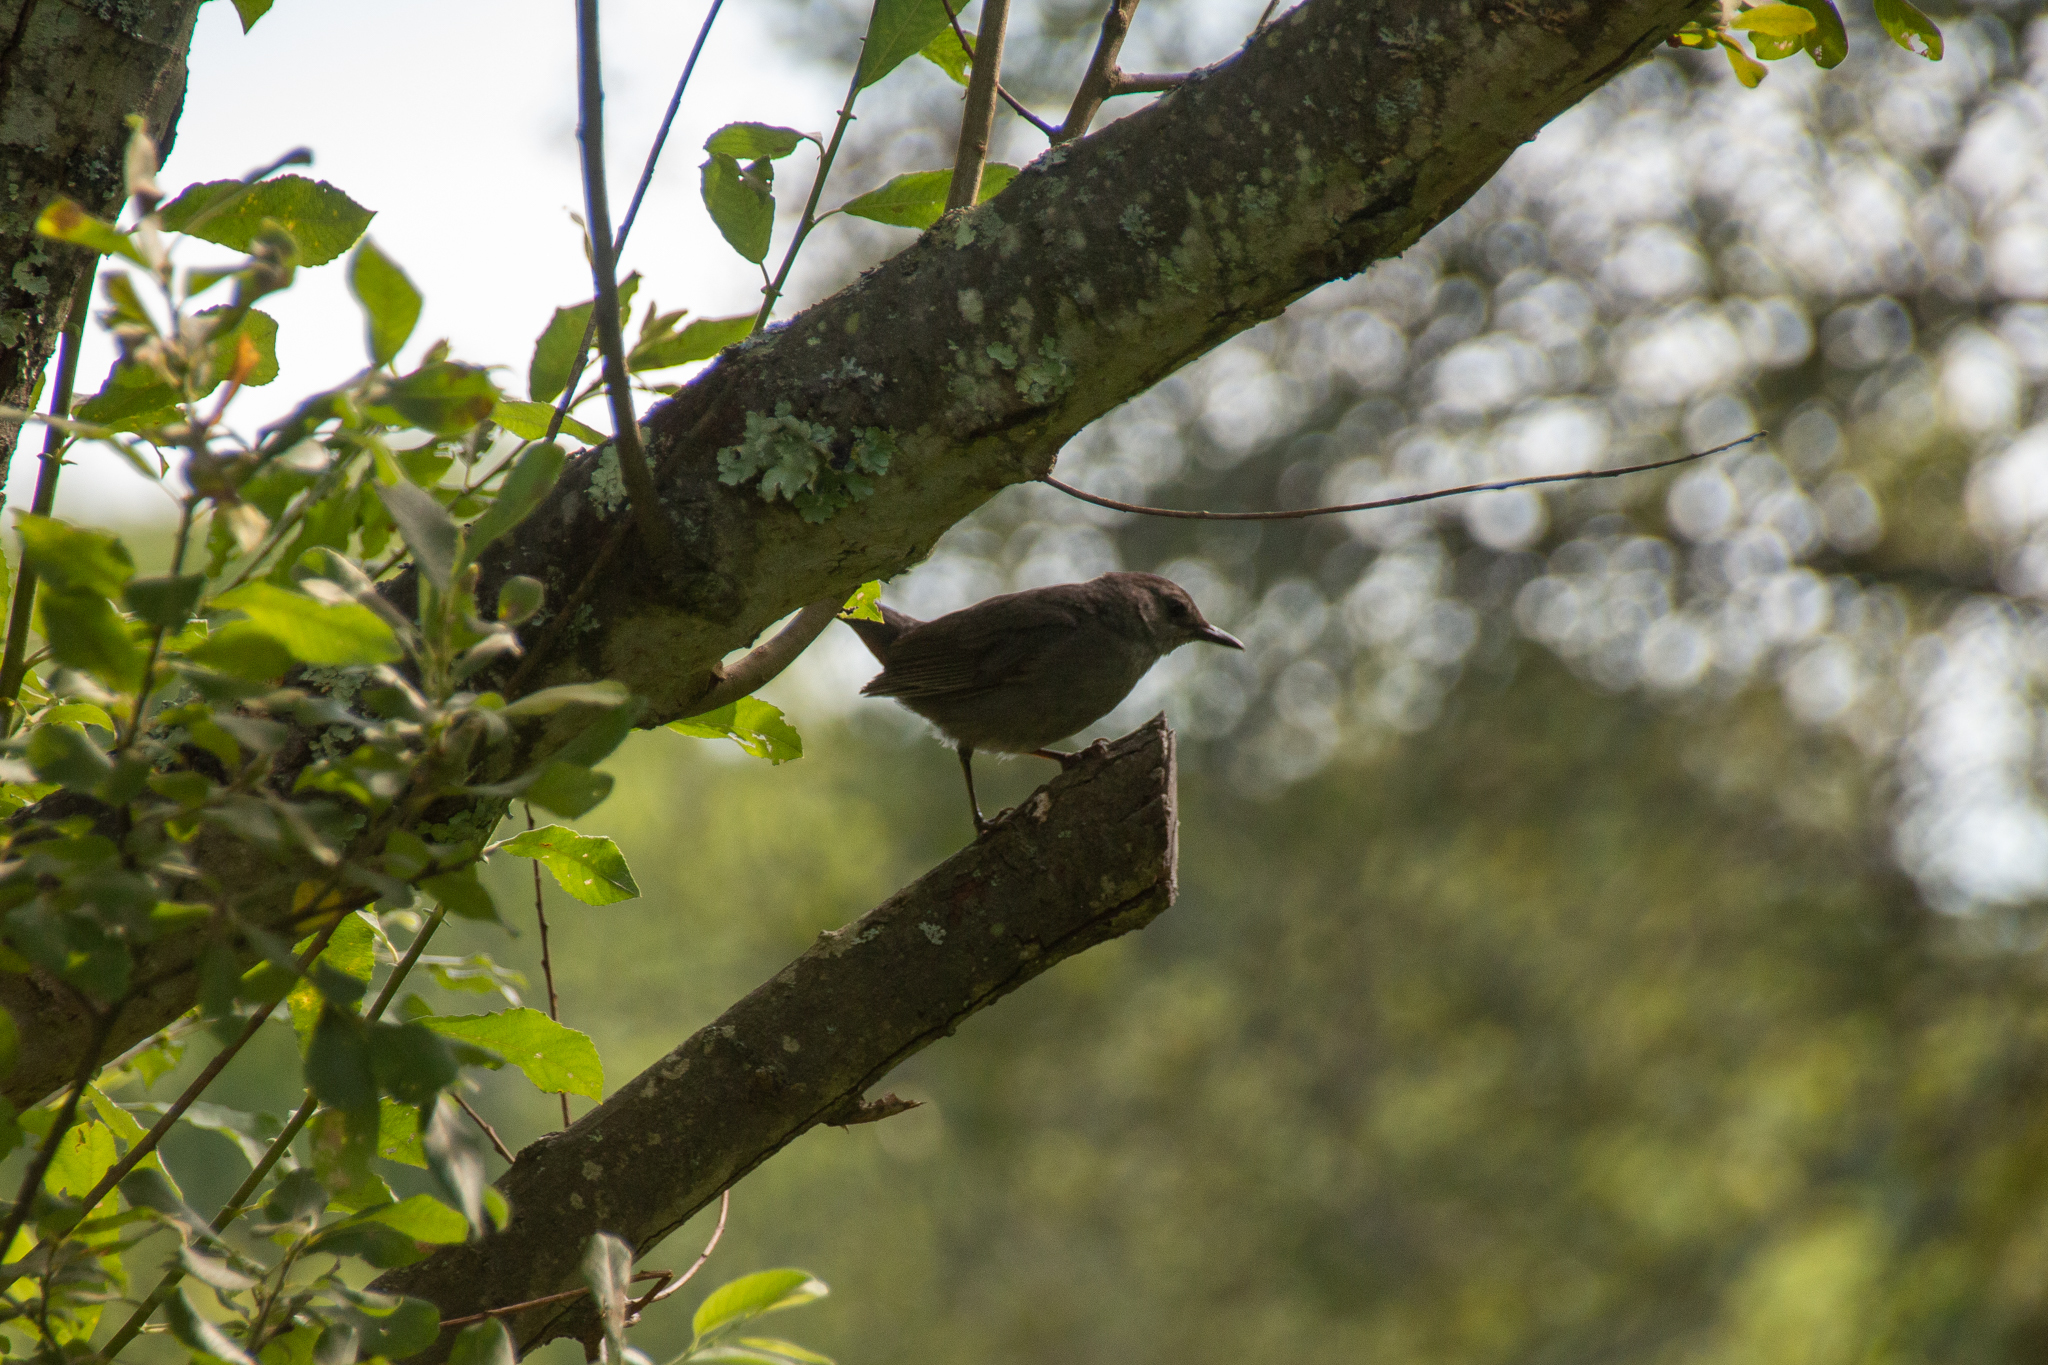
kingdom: Animalia
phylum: Chordata
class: Aves
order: Passeriformes
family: Mimidae
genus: Dumetella
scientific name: Dumetella carolinensis
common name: Gray catbird
